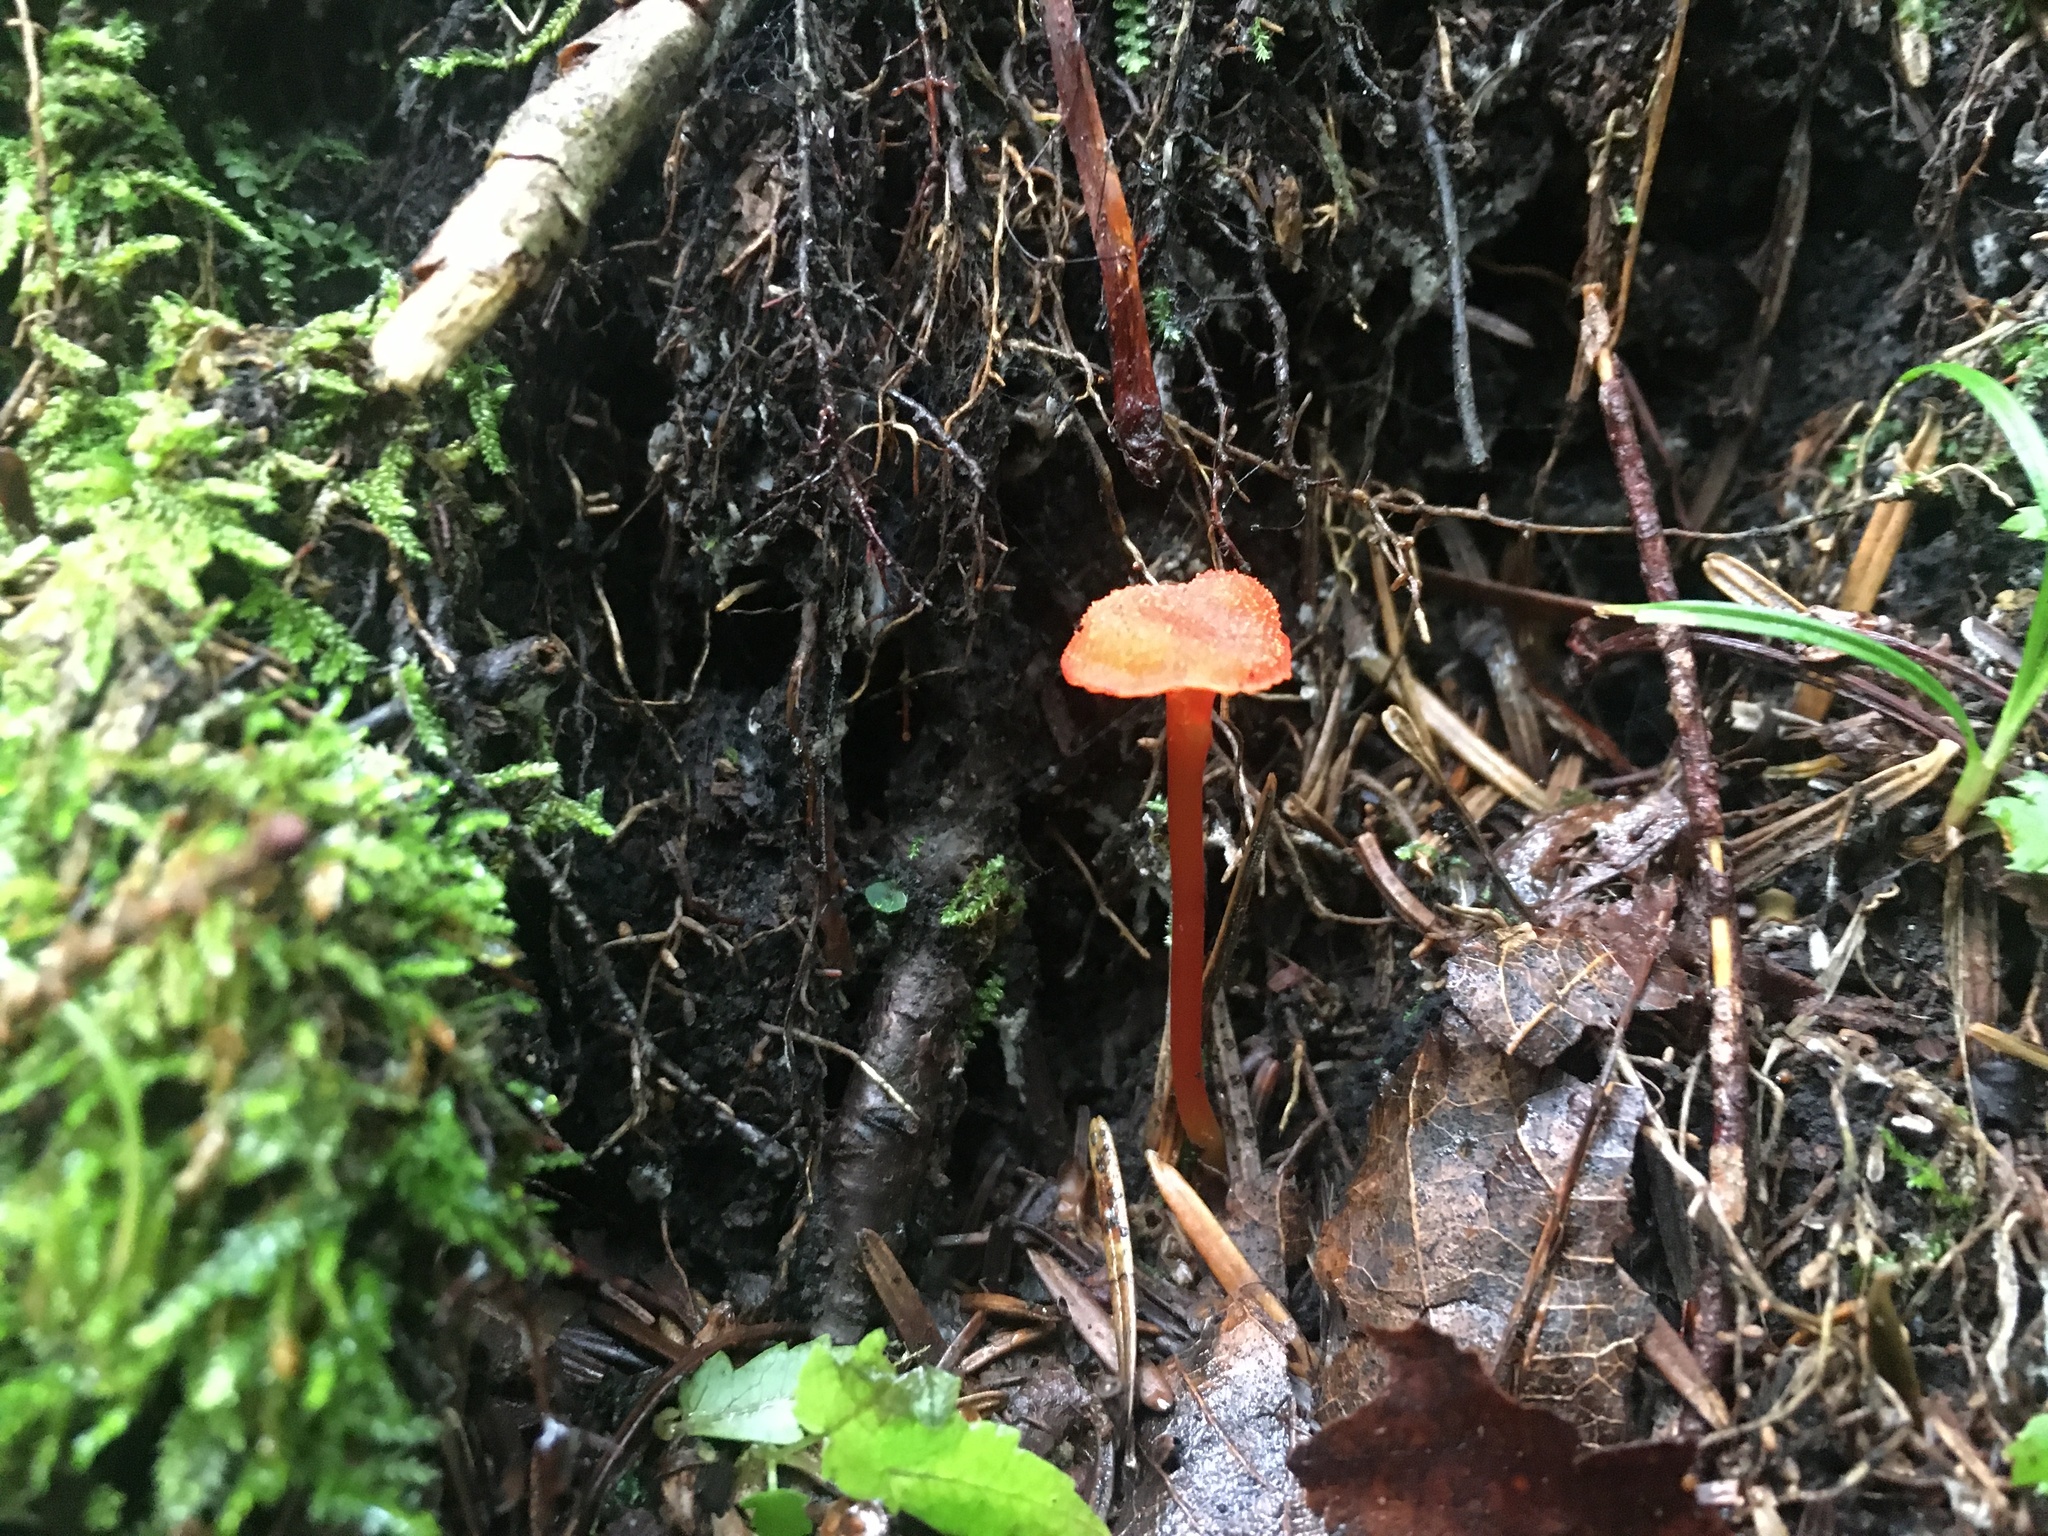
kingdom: Fungi
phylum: Basidiomycota
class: Agaricomycetes
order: Agaricales
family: Hygrophoraceae
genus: Hygrocybe
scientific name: Hygrocybe cantharellus
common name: Goblet waxcap
